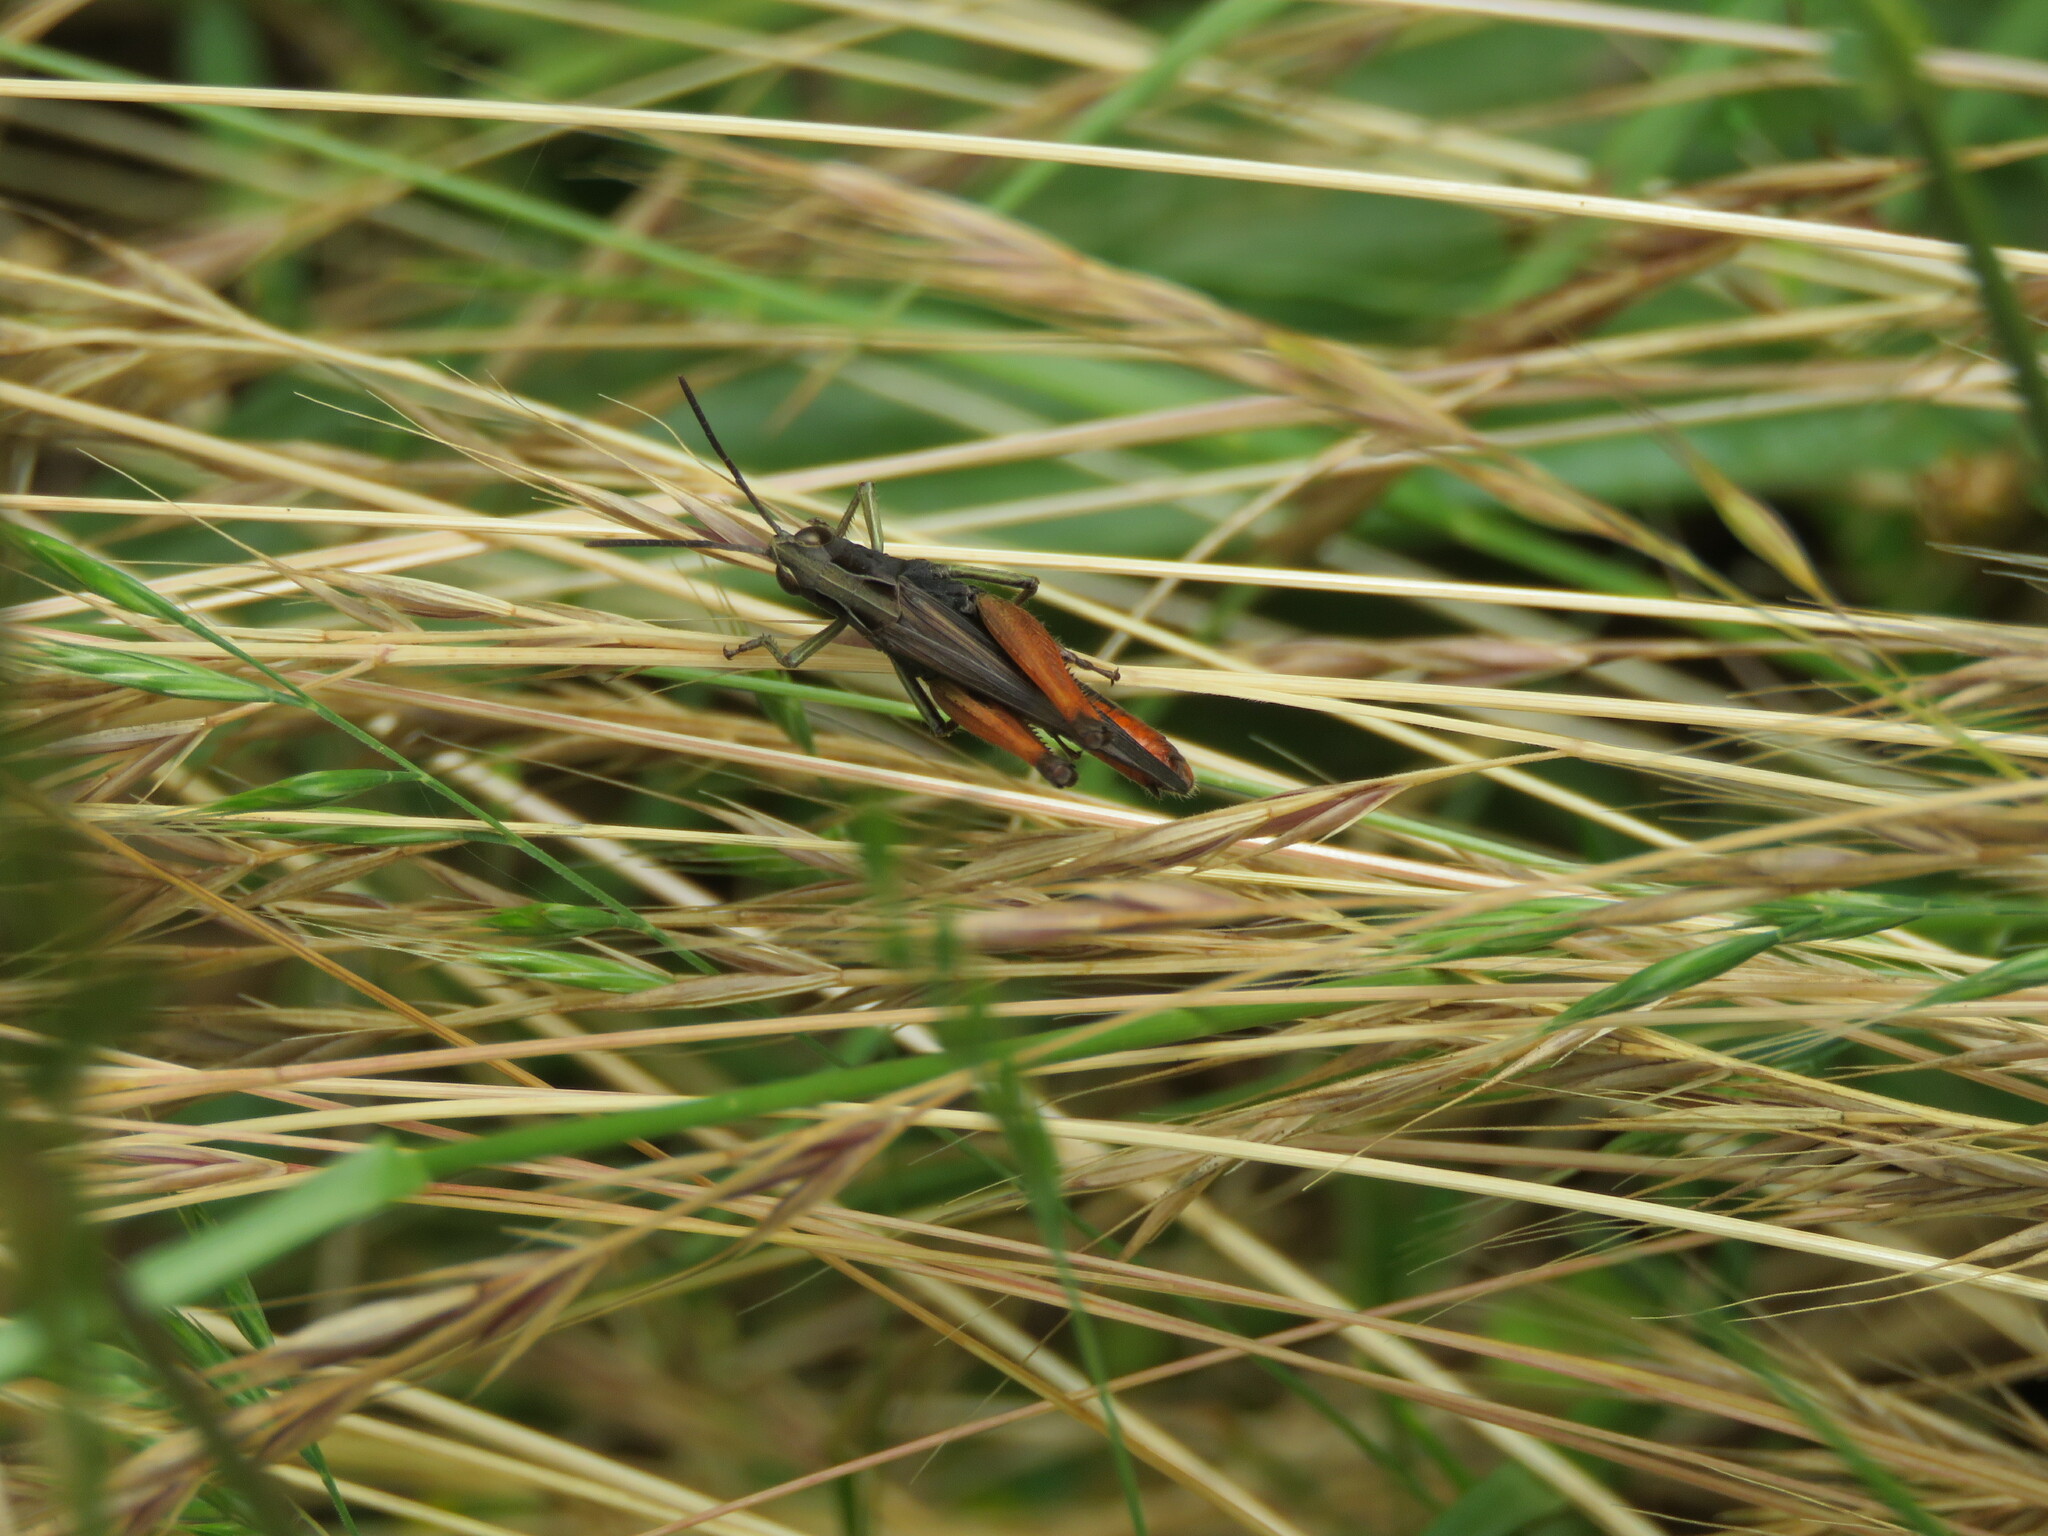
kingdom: Animalia
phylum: Arthropoda
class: Insecta
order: Orthoptera
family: Acrididae
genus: Omocestus
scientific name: Omocestus rufipes
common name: Woodland grasshopper
